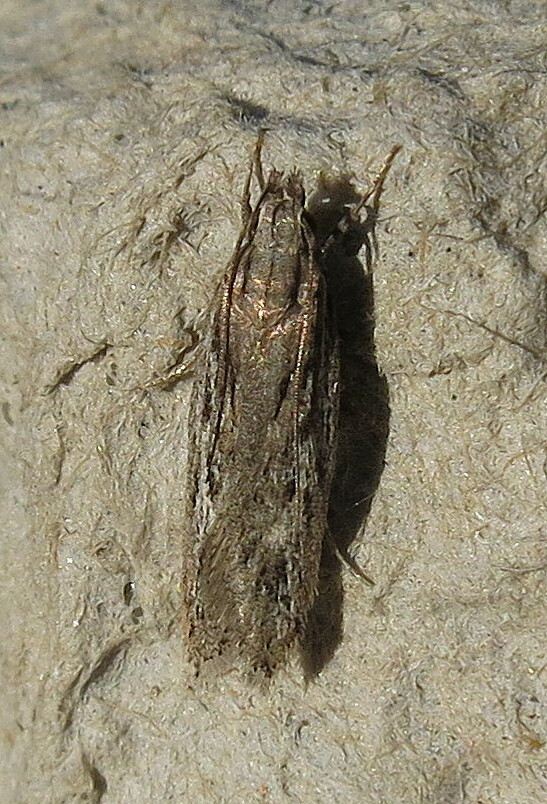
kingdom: Animalia
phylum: Arthropoda
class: Insecta
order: Lepidoptera
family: Gelechiidae
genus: Gelechia
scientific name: Gelechia senticetella
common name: Cypress groundling
